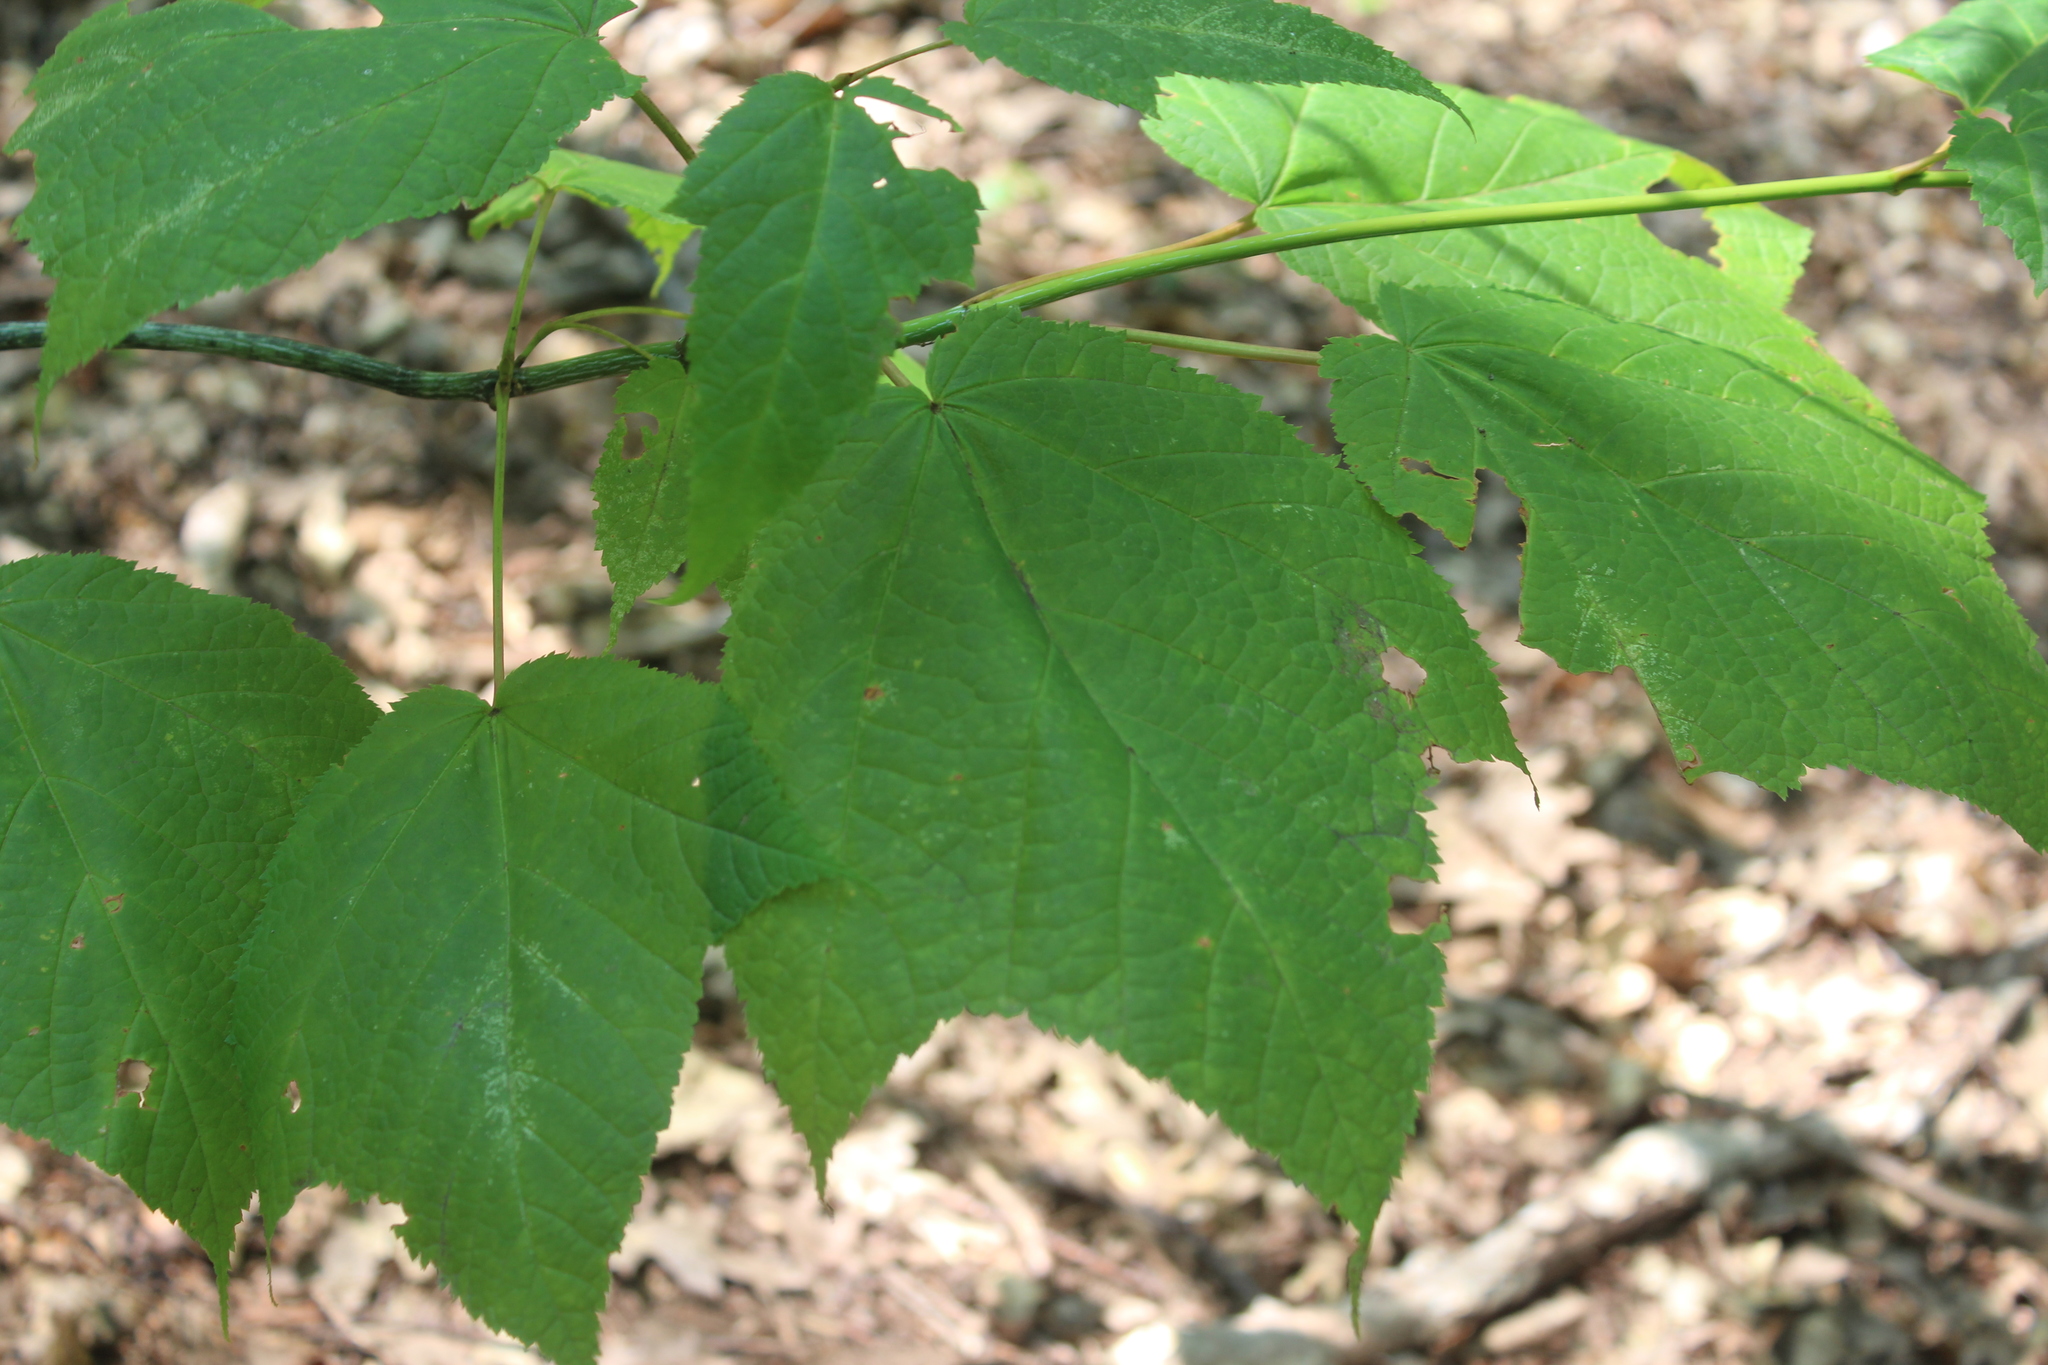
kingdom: Plantae
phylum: Tracheophyta
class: Magnoliopsida
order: Sapindales
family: Sapindaceae
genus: Acer
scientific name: Acer pensylvanicum
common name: Moosewood
